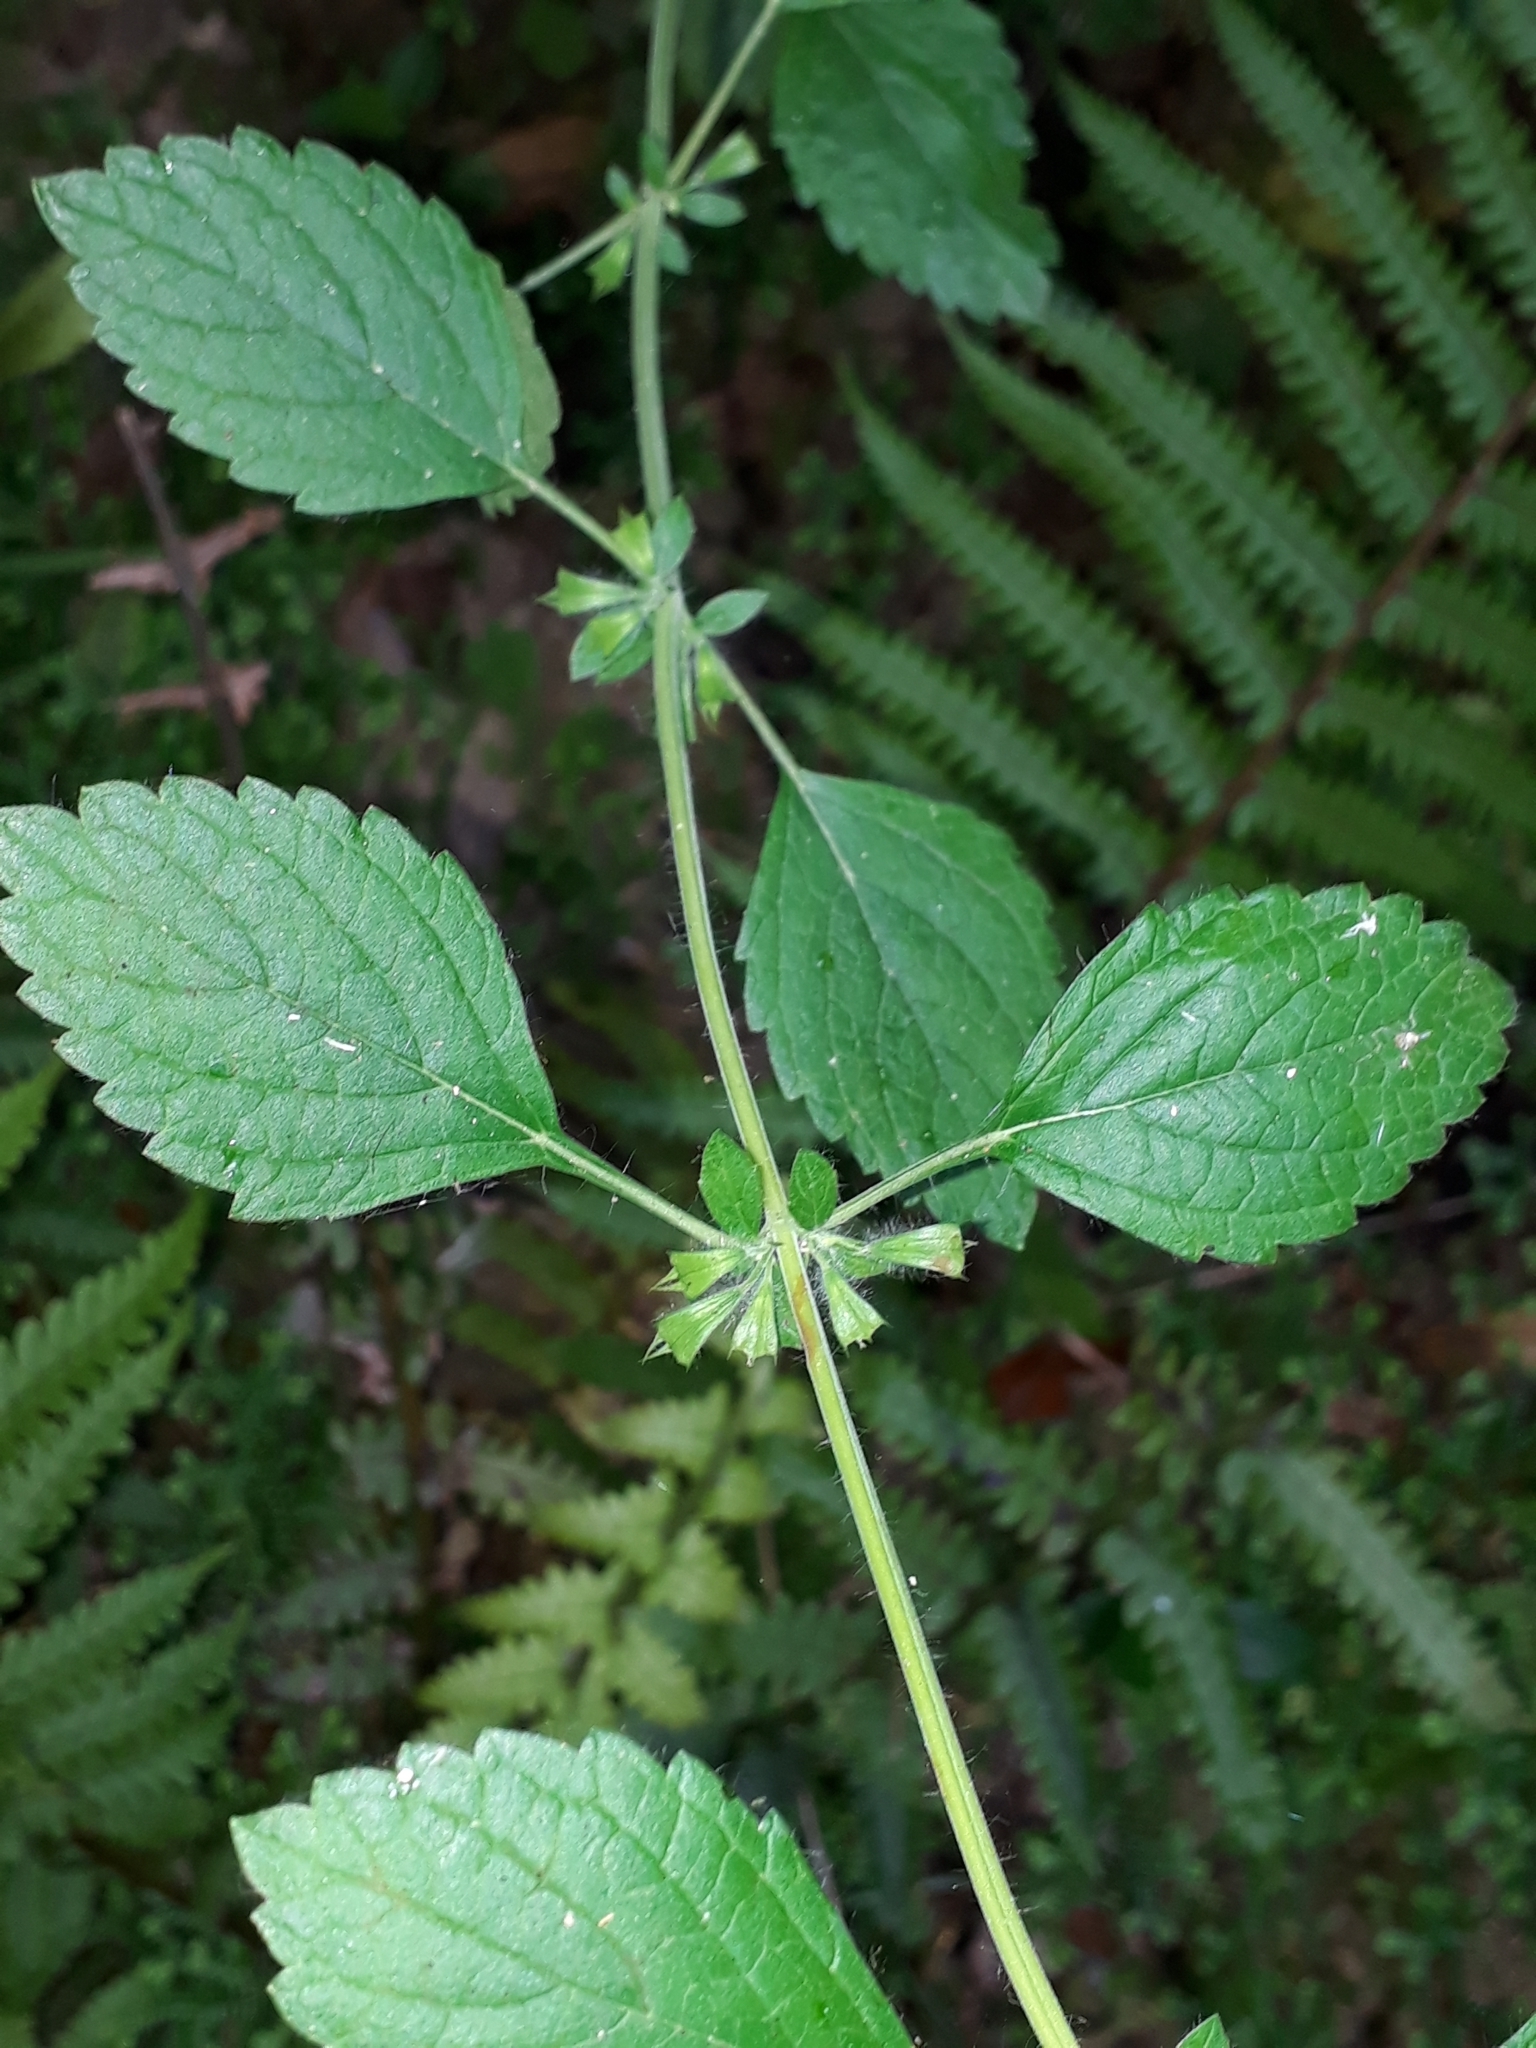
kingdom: Plantae
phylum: Tracheophyta
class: Magnoliopsida
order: Lamiales
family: Lamiaceae
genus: Melissa
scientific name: Melissa officinalis
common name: Balm
